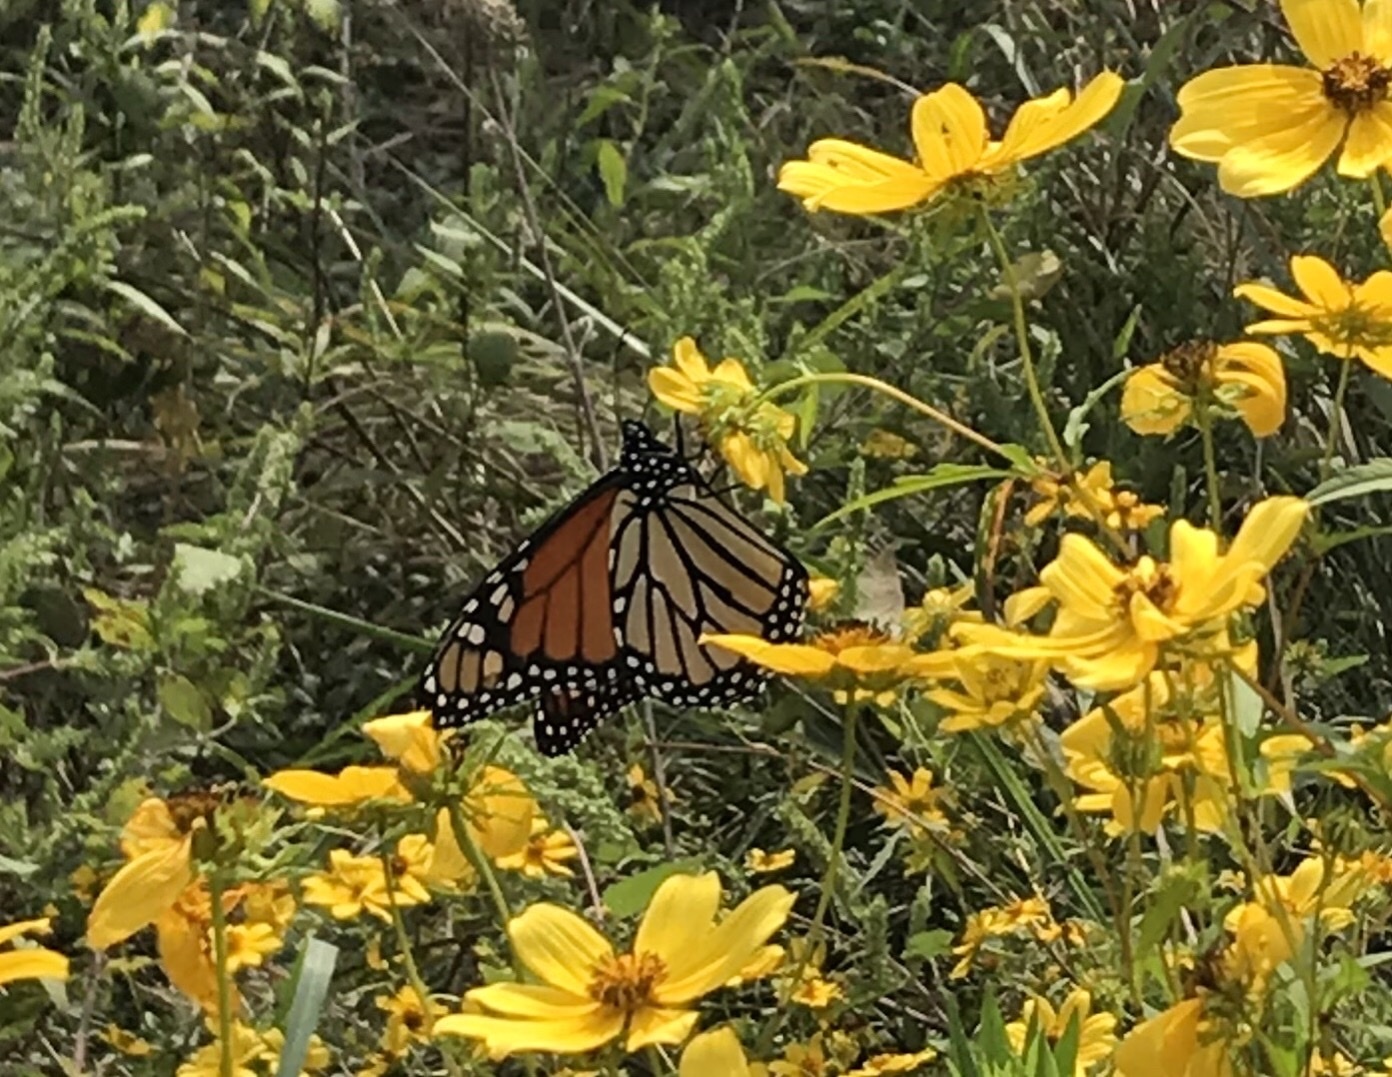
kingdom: Animalia
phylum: Arthropoda
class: Insecta
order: Lepidoptera
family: Nymphalidae
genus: Danaus
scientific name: Danaus plexippus
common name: Monarch
